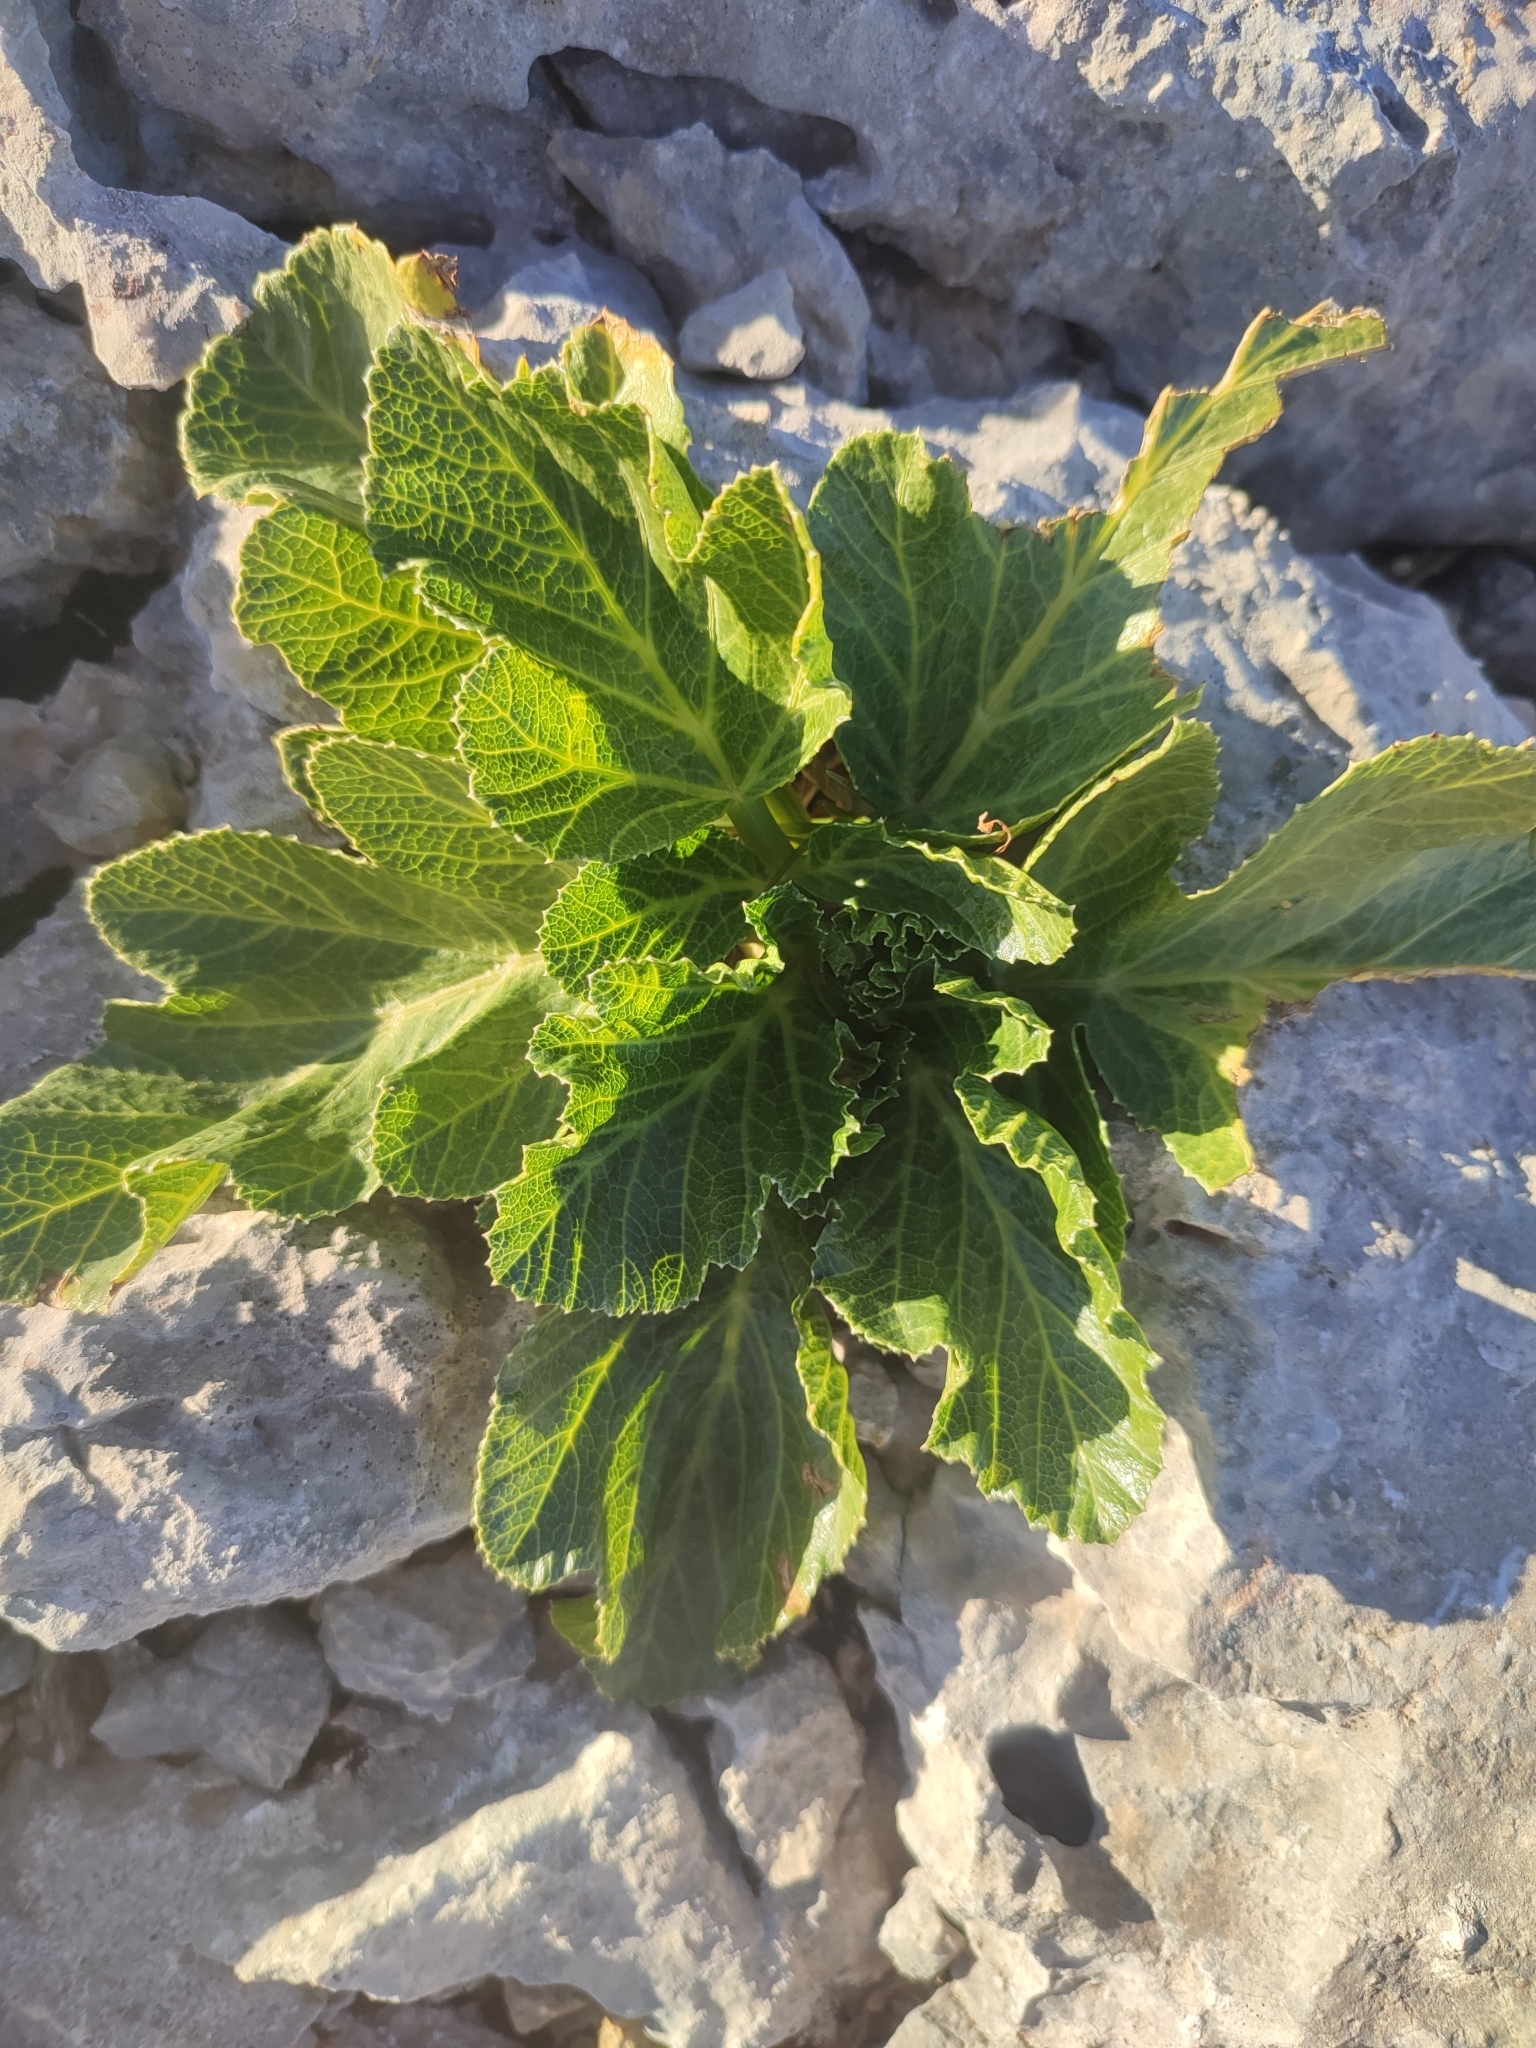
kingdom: Plantae
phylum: Tracheophyta
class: Magnoliopsida
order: Apiales
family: Apiaceae
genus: Pastinaca
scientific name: Pastinaca lucida
